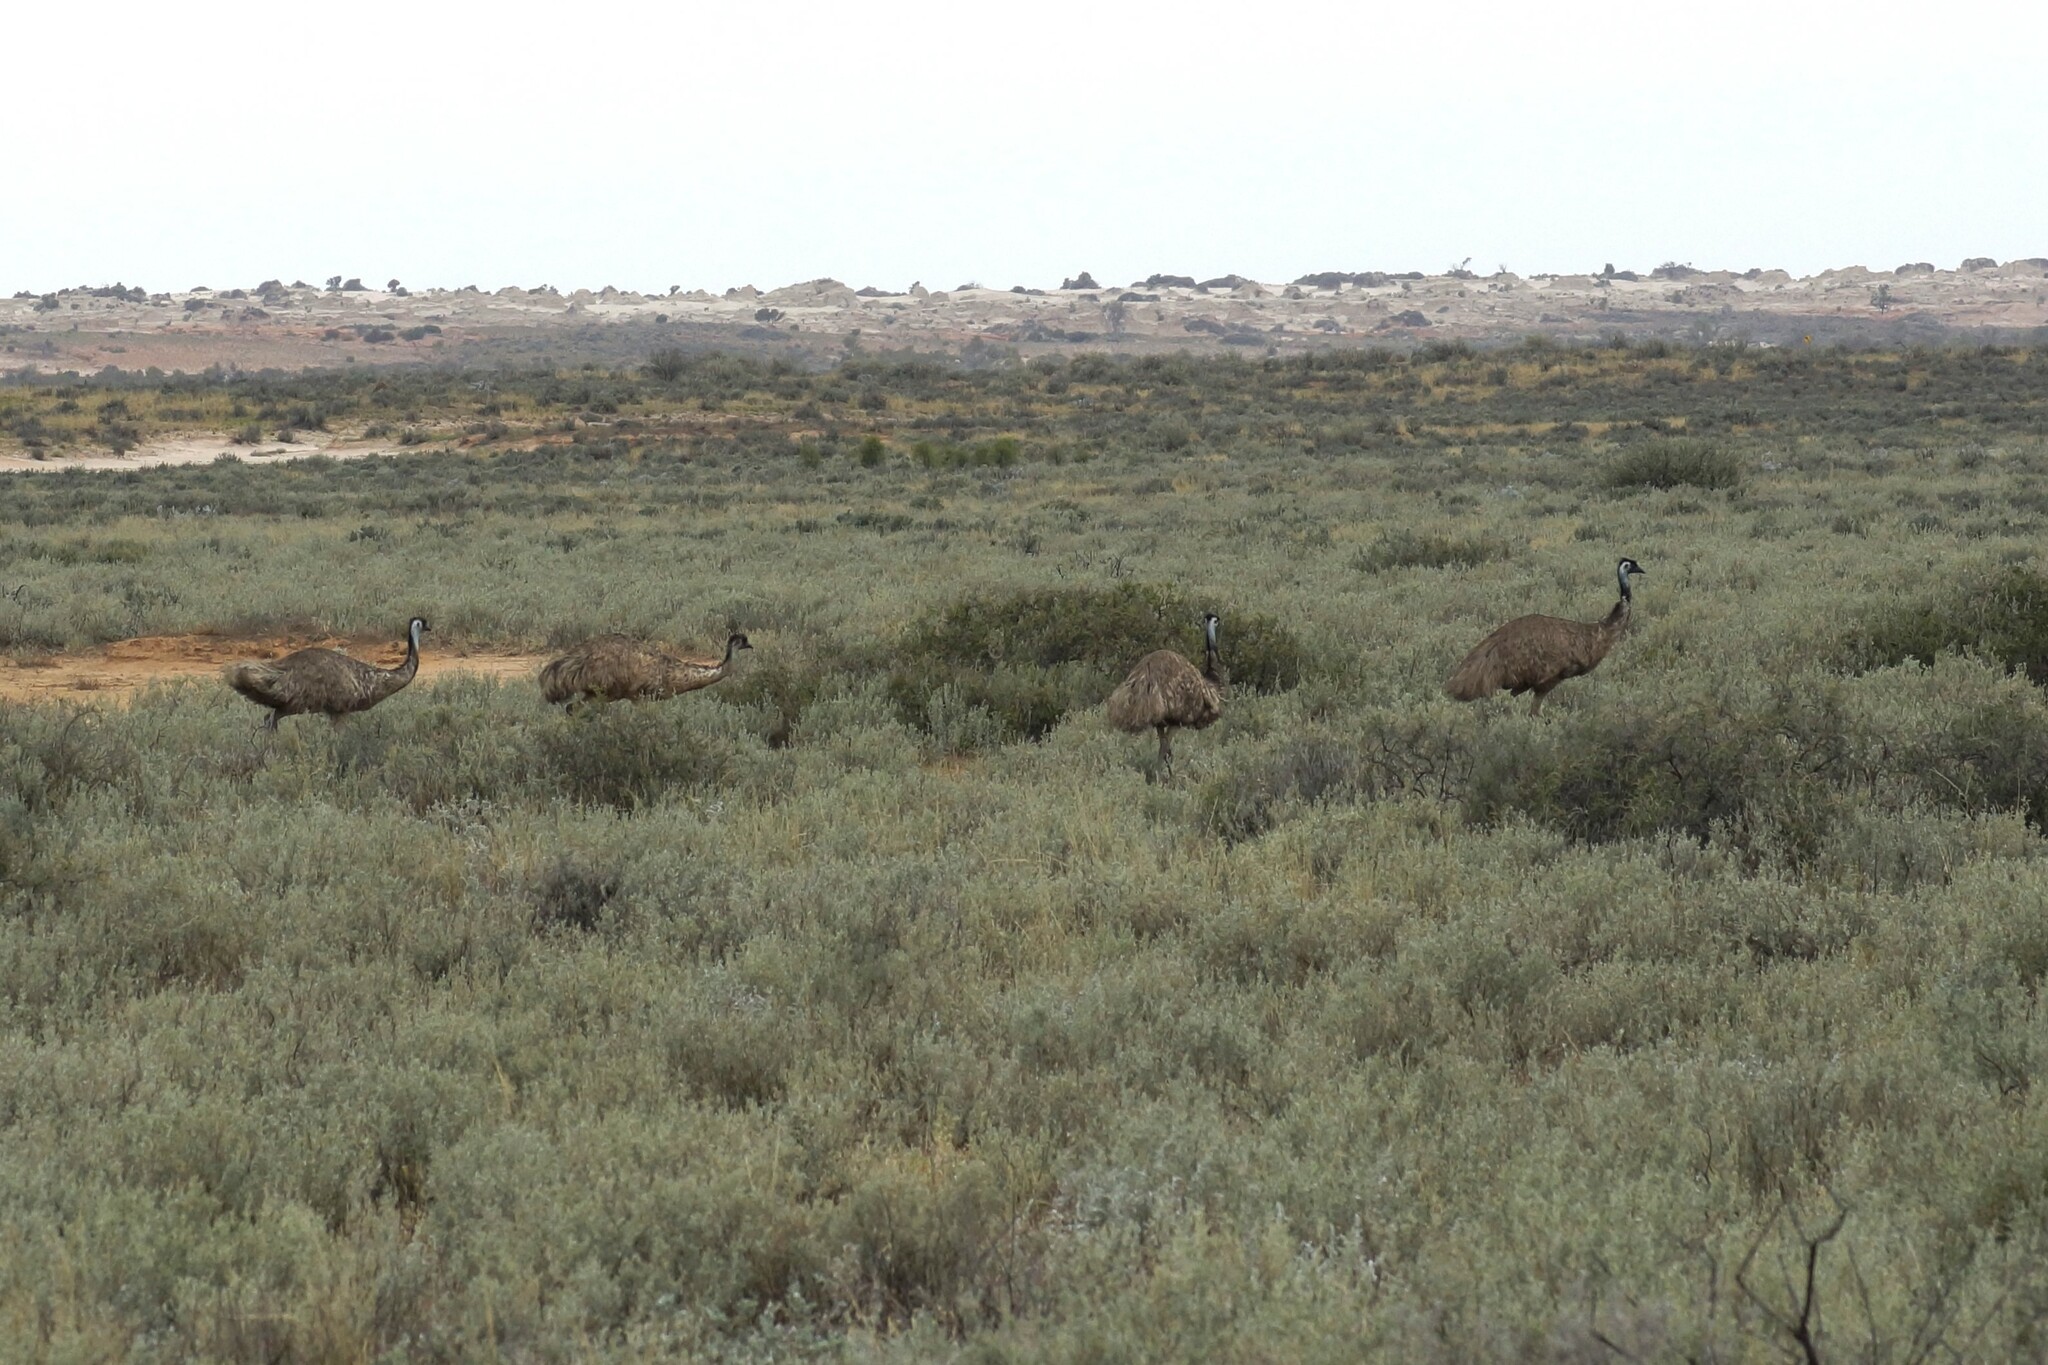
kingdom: Animalia
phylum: Chordata
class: Aves
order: Casuariiformes
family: Dromaiidae
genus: Dromaius
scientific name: Dromaius novaehollandiae
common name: Emu
